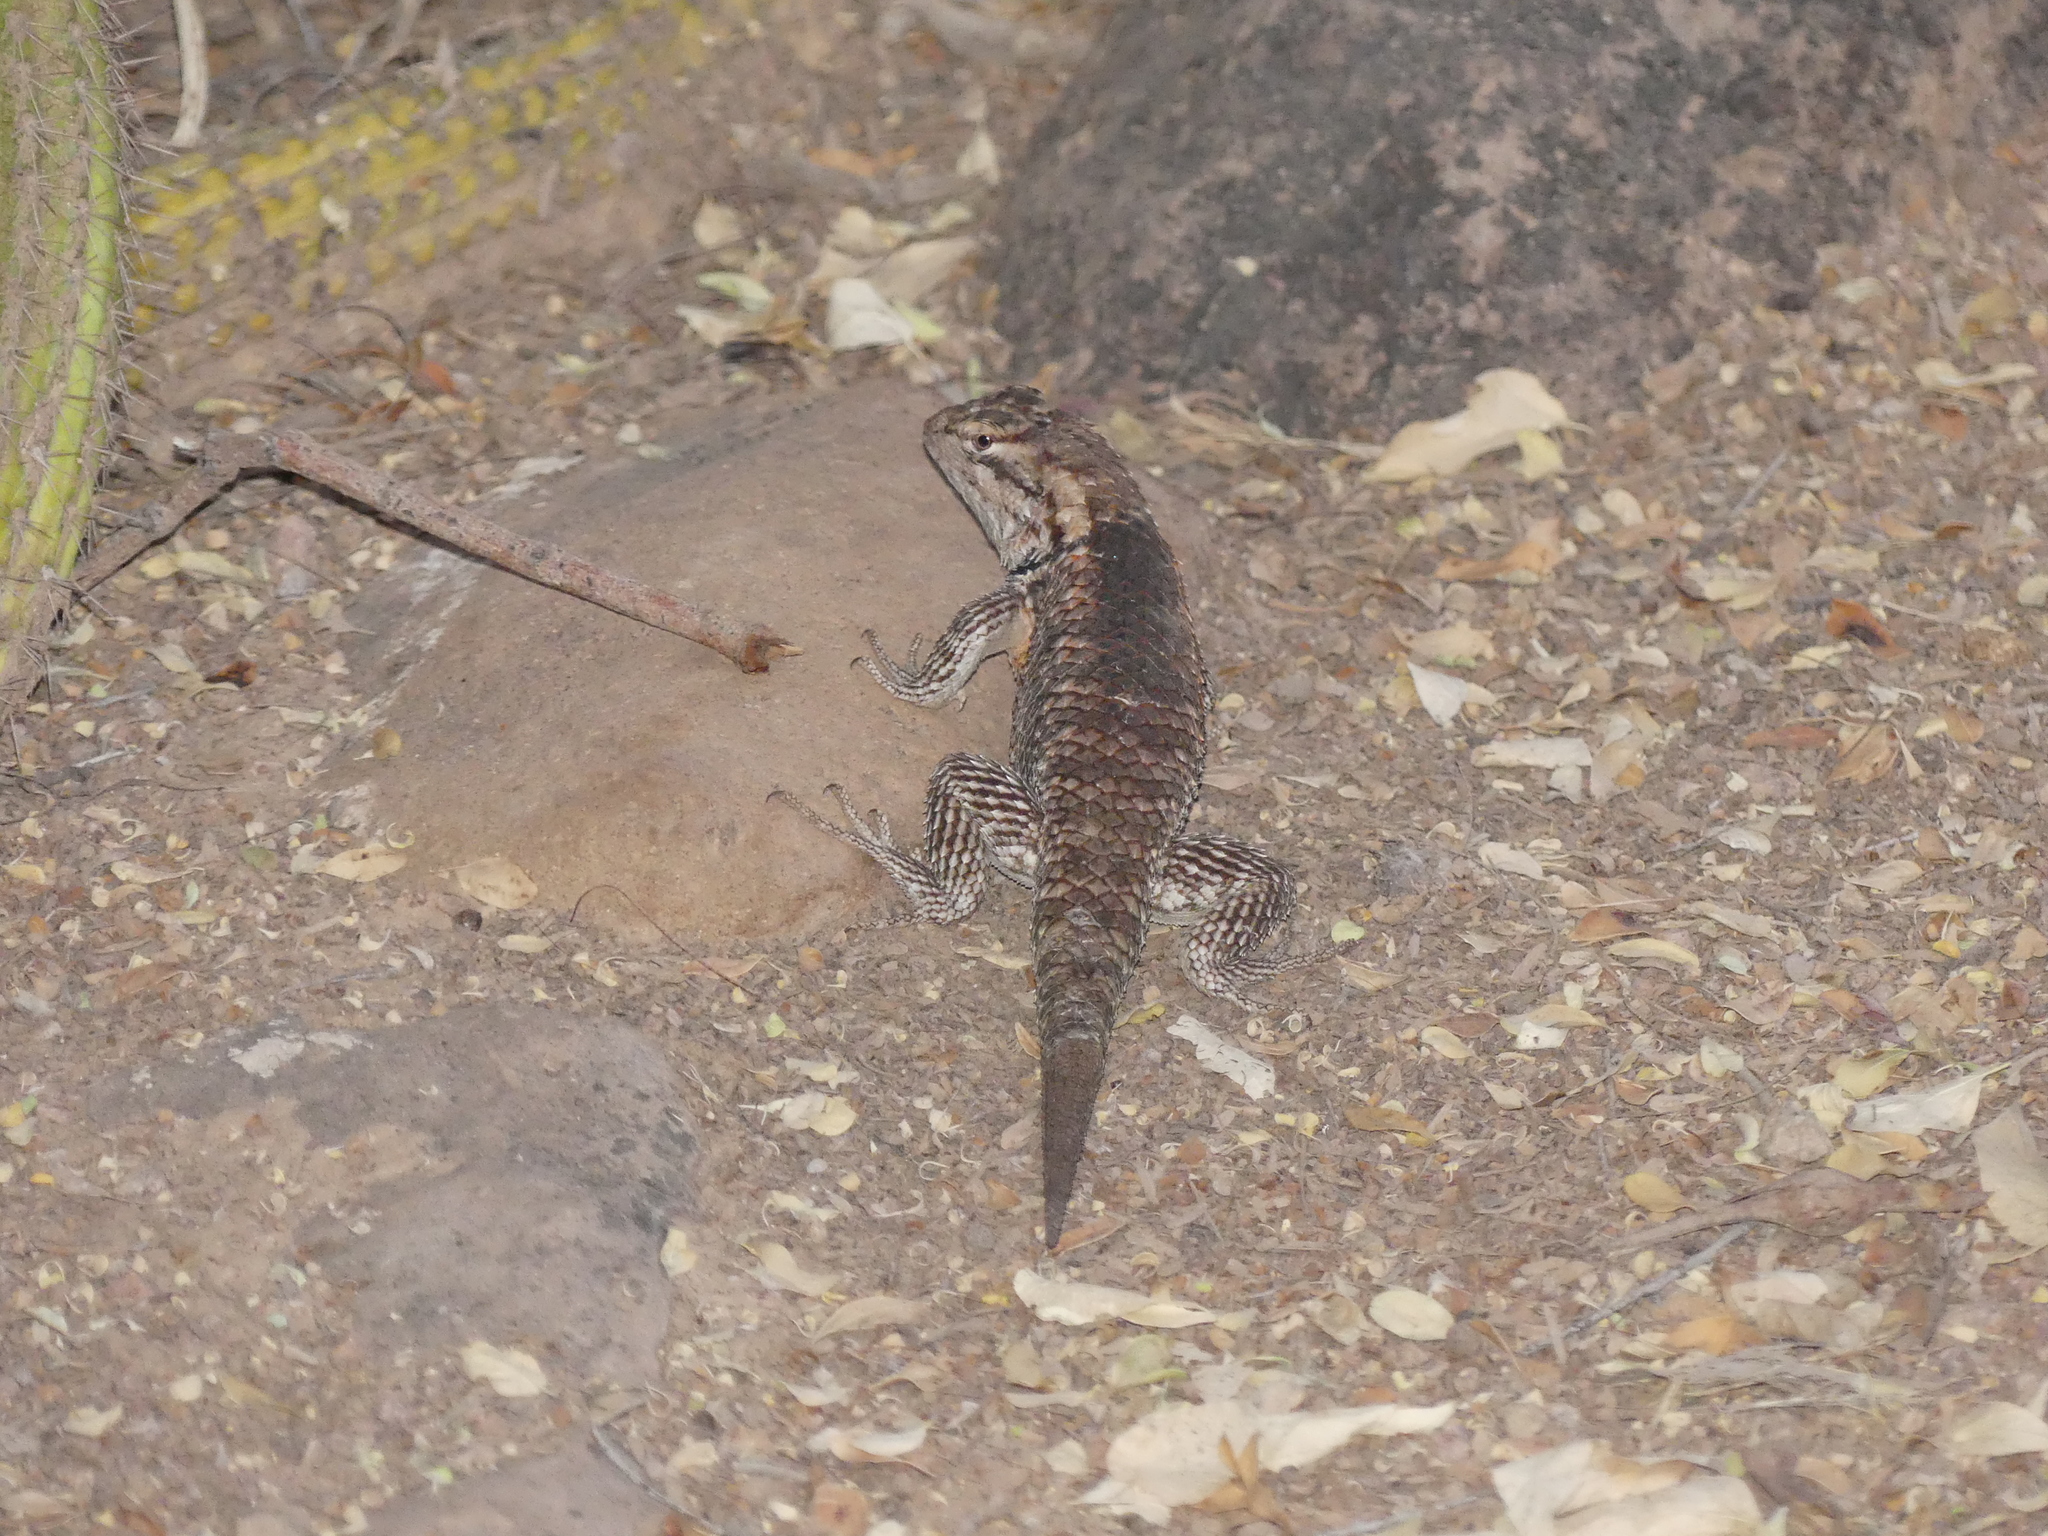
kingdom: Animalia
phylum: Chordata
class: Squamata
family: Phrynosomatidae
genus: Sceloporus
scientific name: Sceloporus magister
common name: Desert spiny lizard
